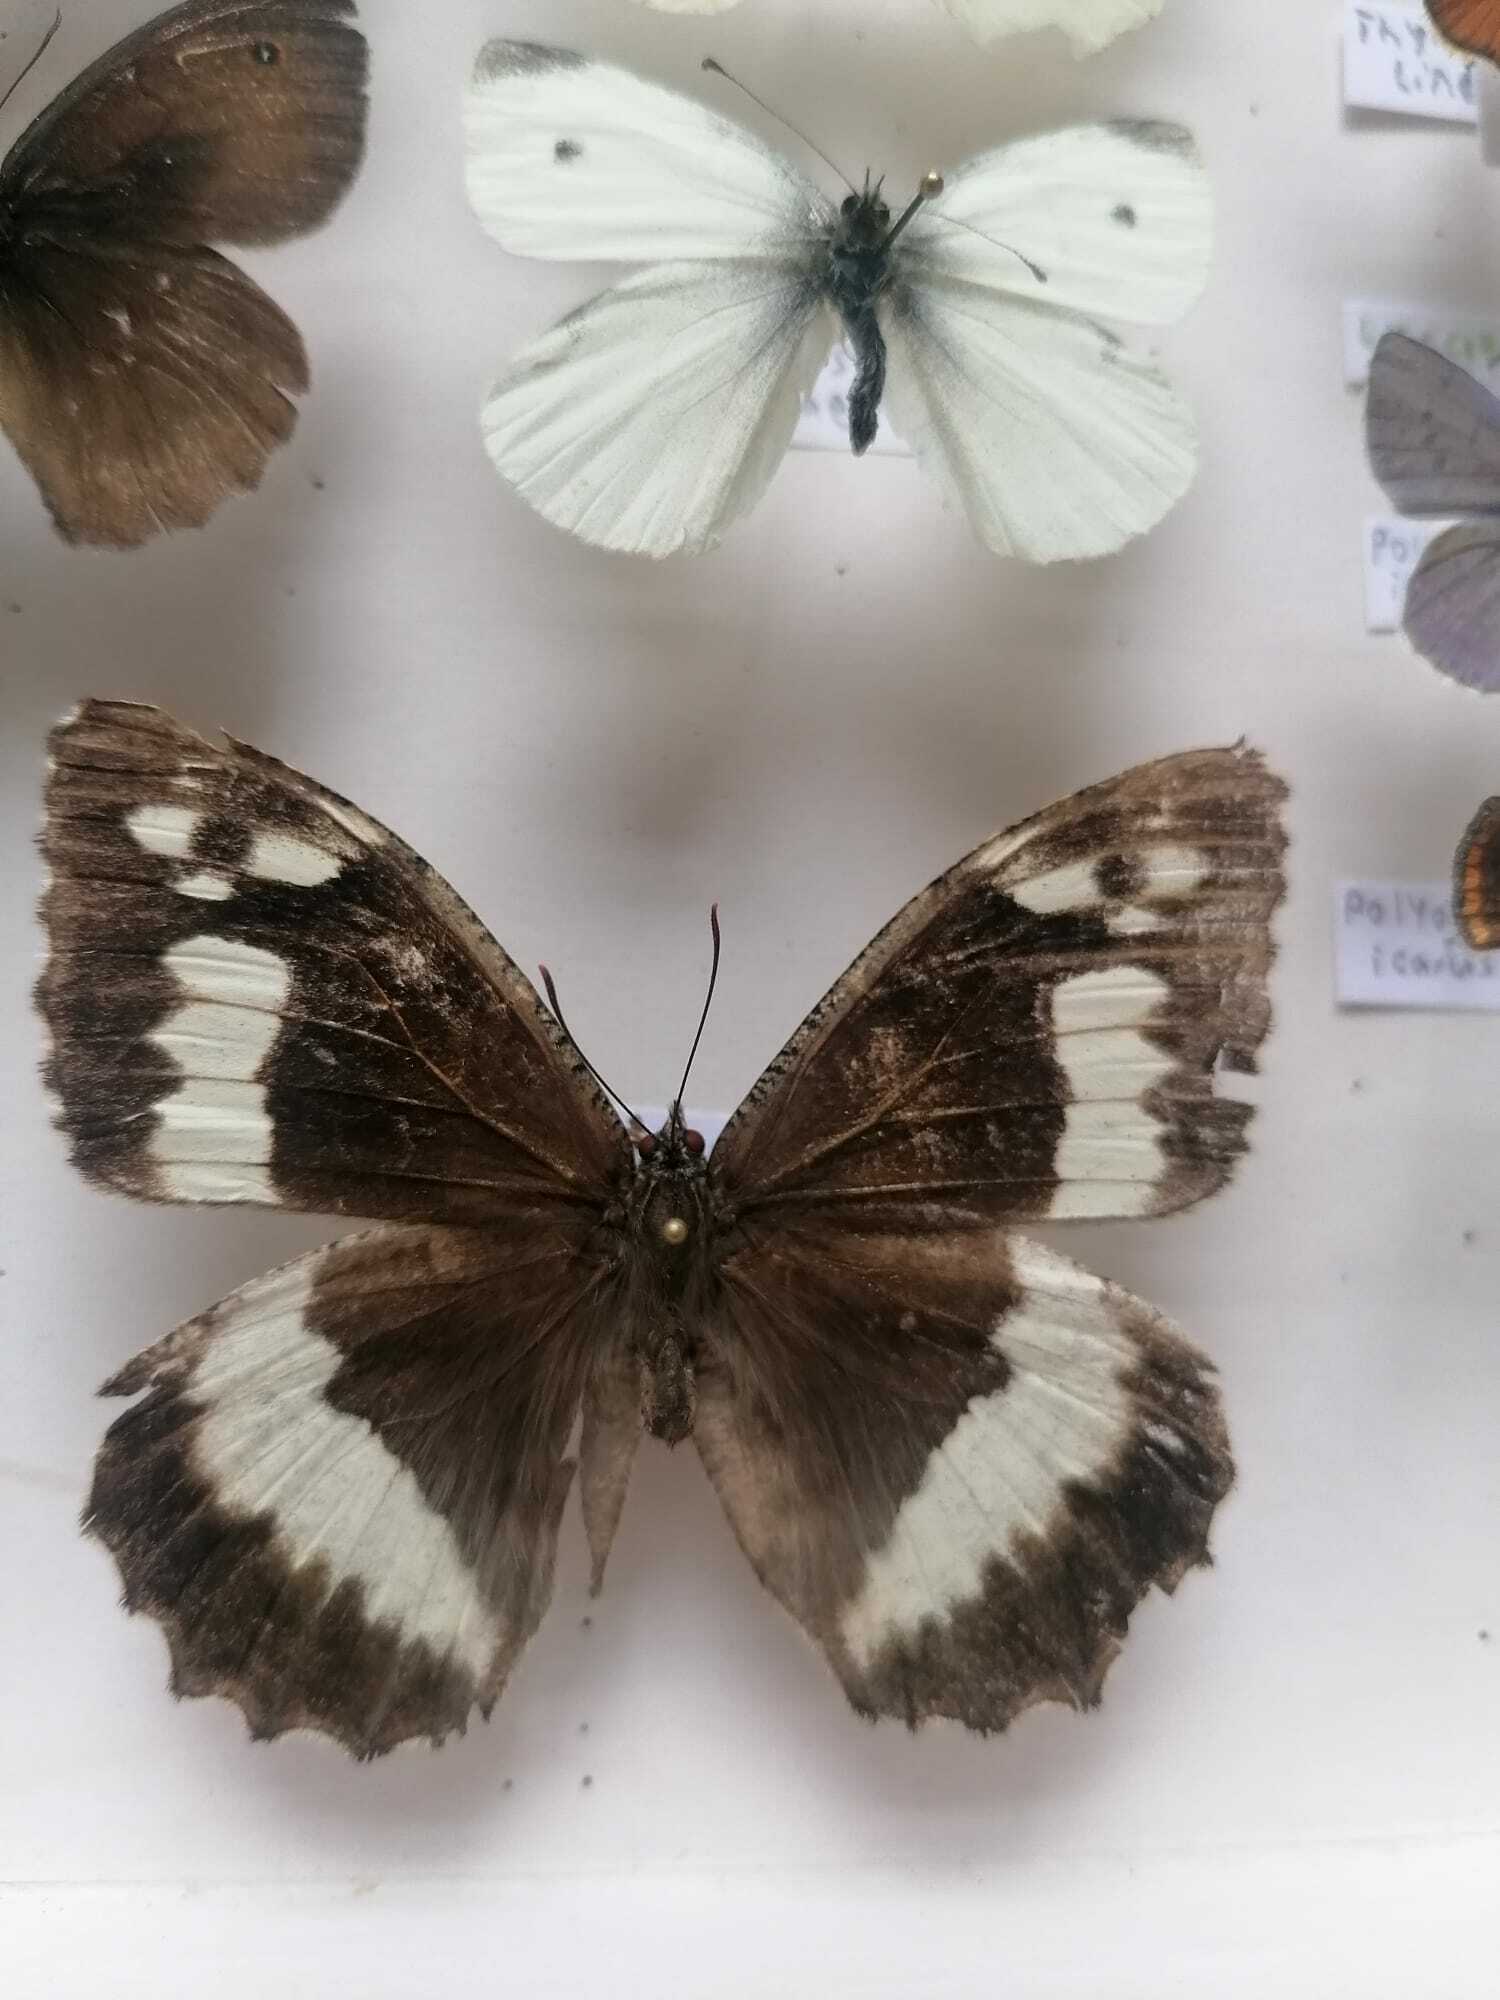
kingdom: Animalia
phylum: Arthropoda
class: Insecta
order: Lepidoptera
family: Lycaenidae
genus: Loweia
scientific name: Loweia tityrus
